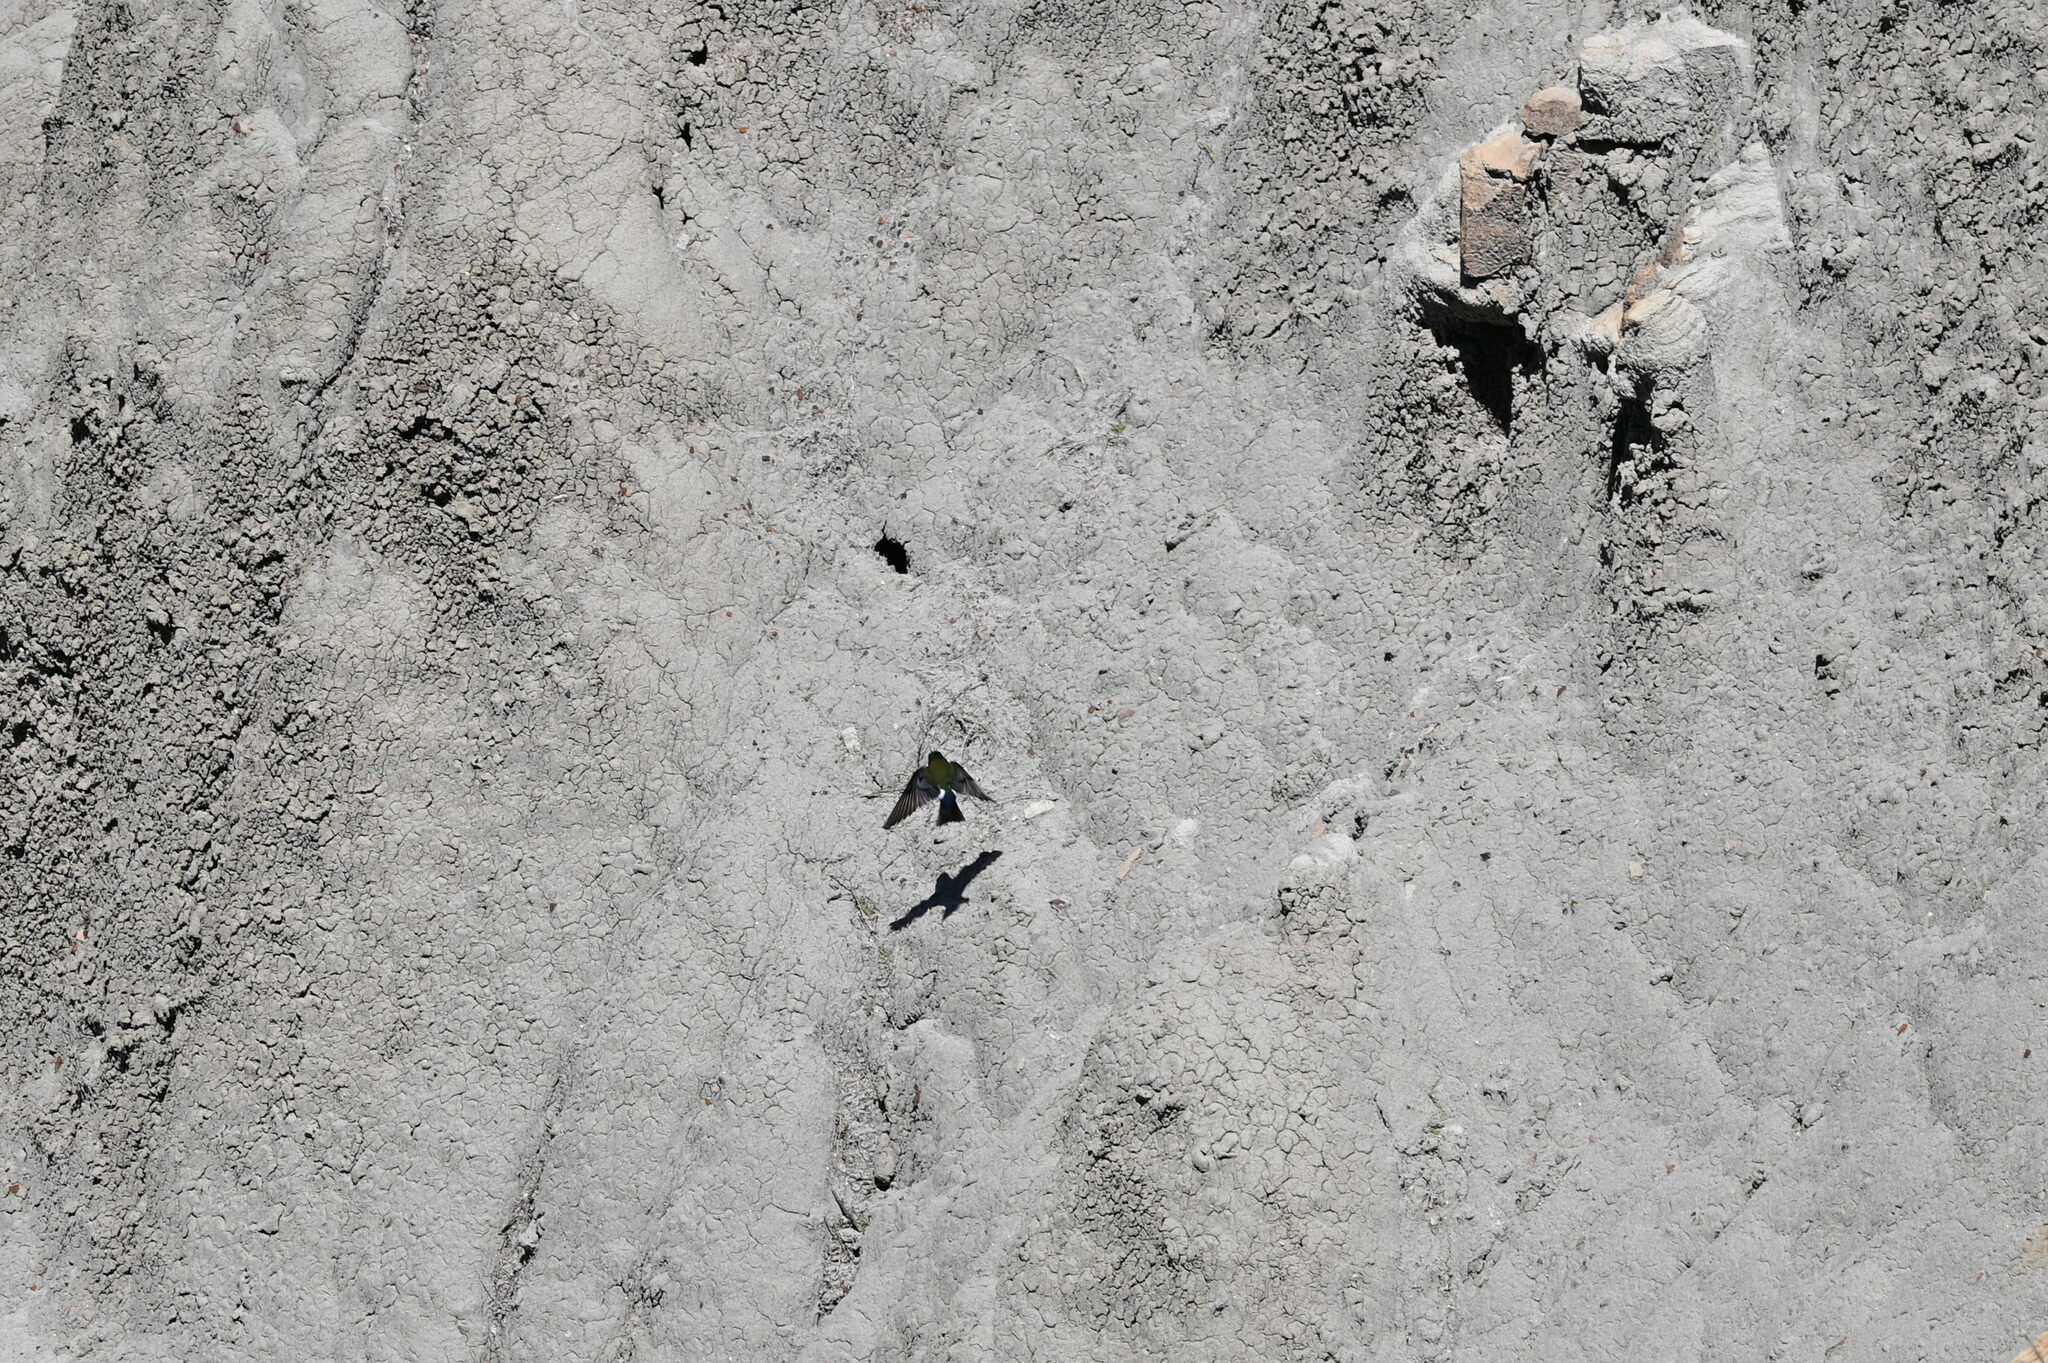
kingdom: Animalia
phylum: Chordata
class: Aves
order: Passeriformes
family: Hirundinidae
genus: Tachycineta
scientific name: Tachycineta thalassina
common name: Violet-green swallow
